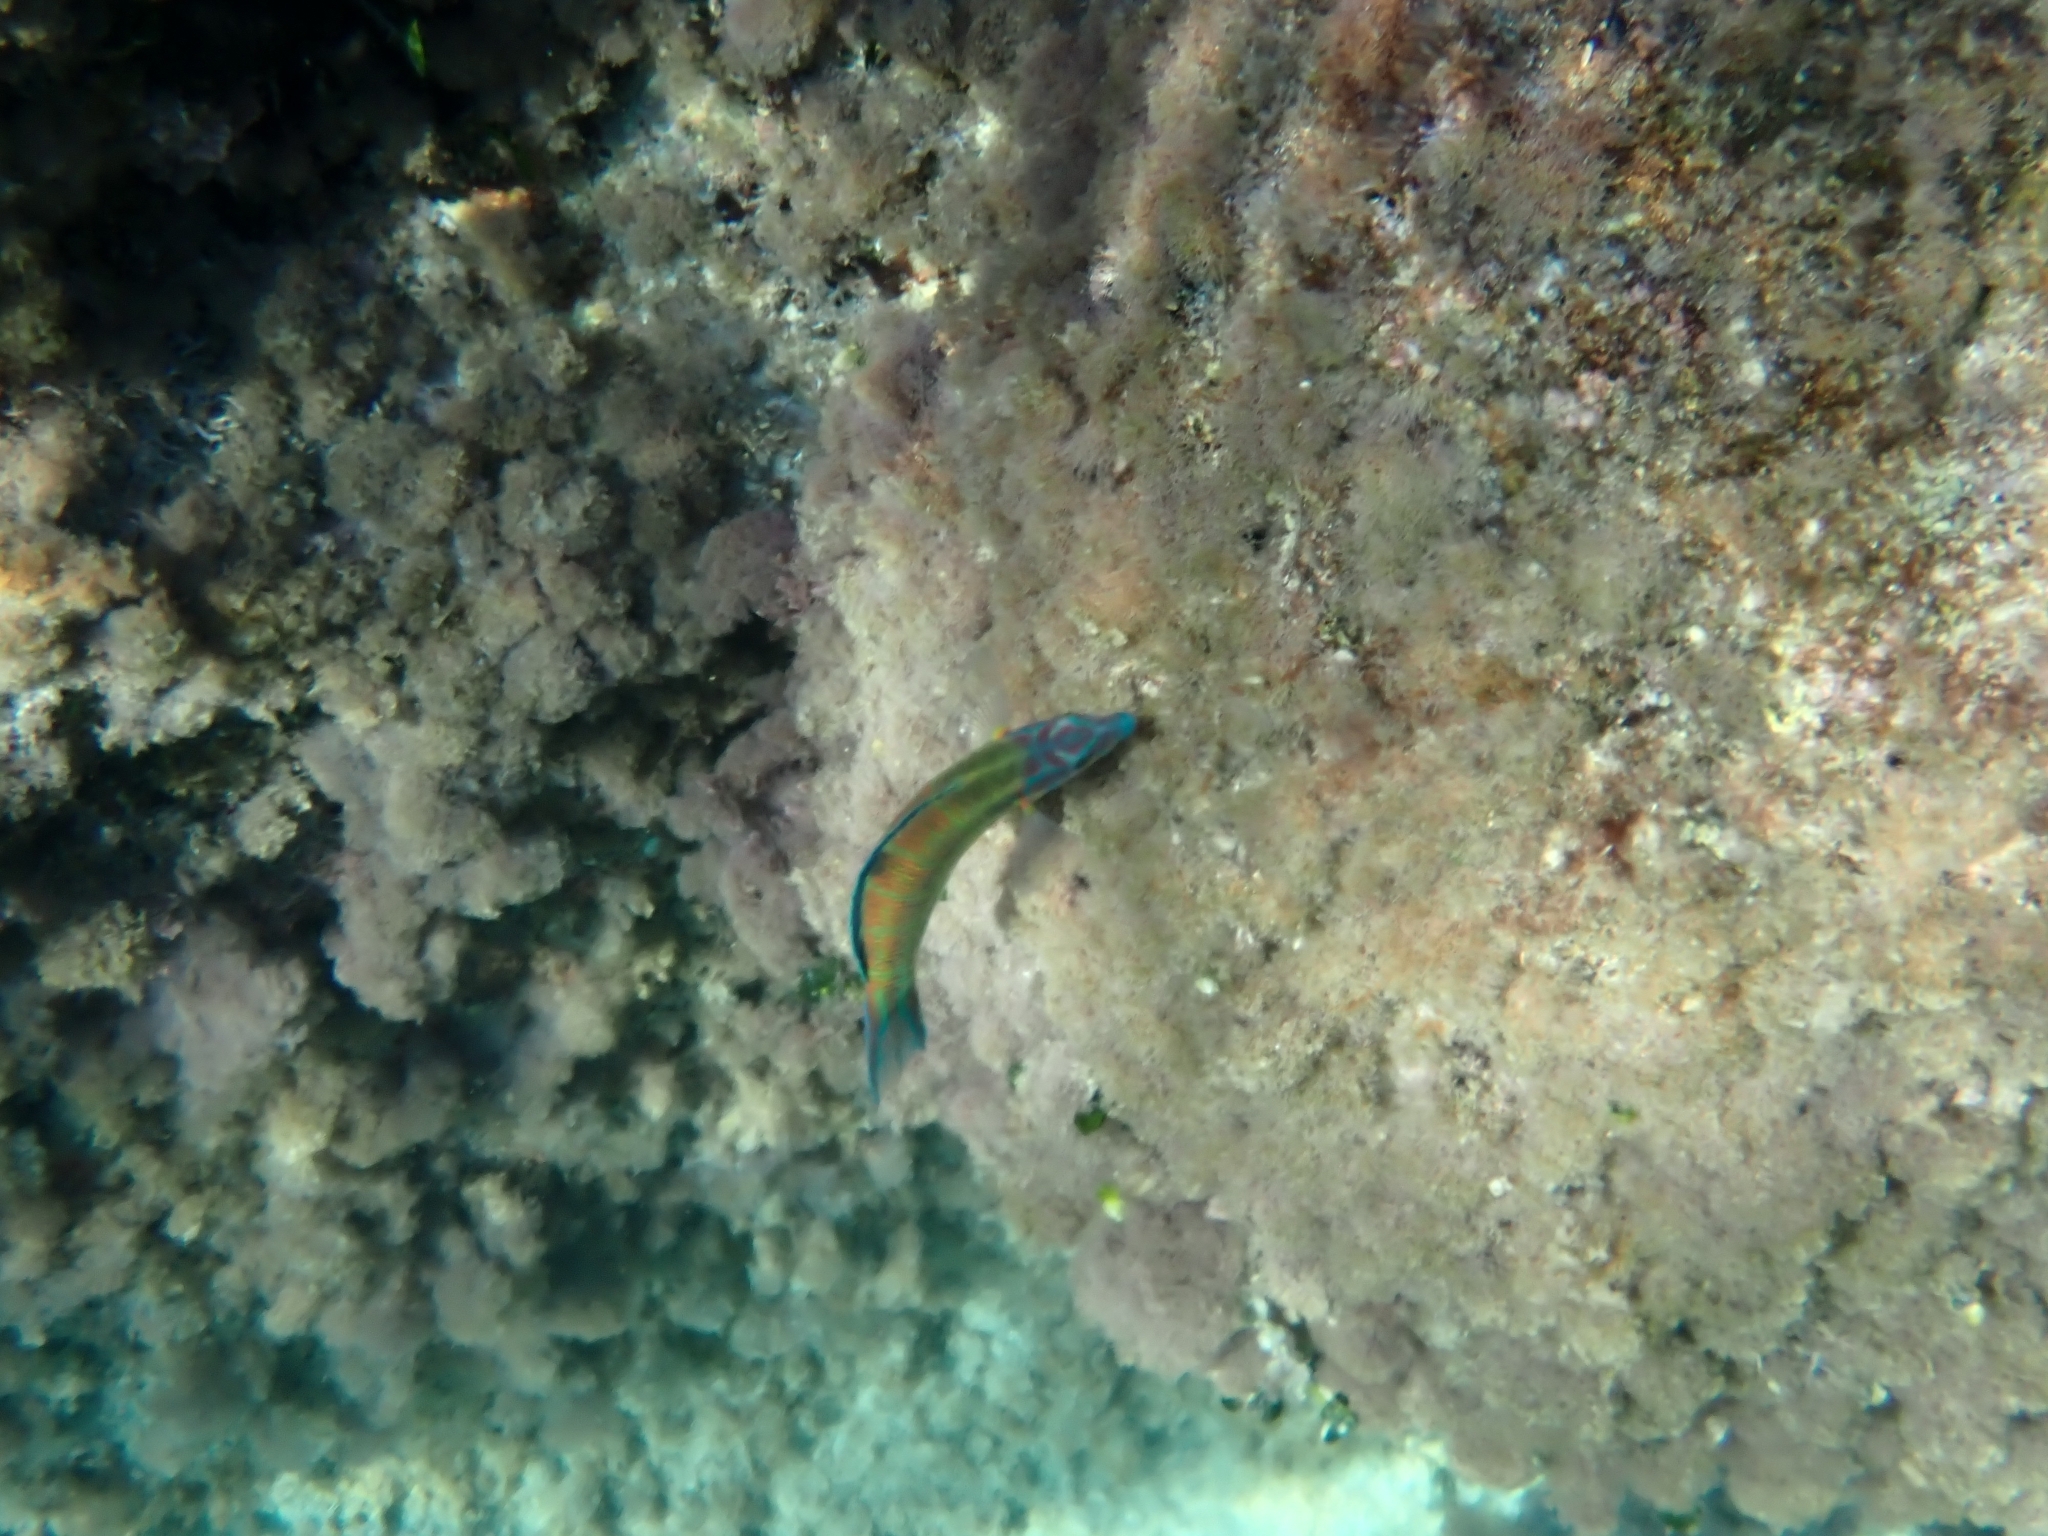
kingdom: Animalia
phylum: Chordata
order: Perciformes
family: Labridae
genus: Thalassoma
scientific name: Thalassoma pavo
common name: Ornate wrasse
